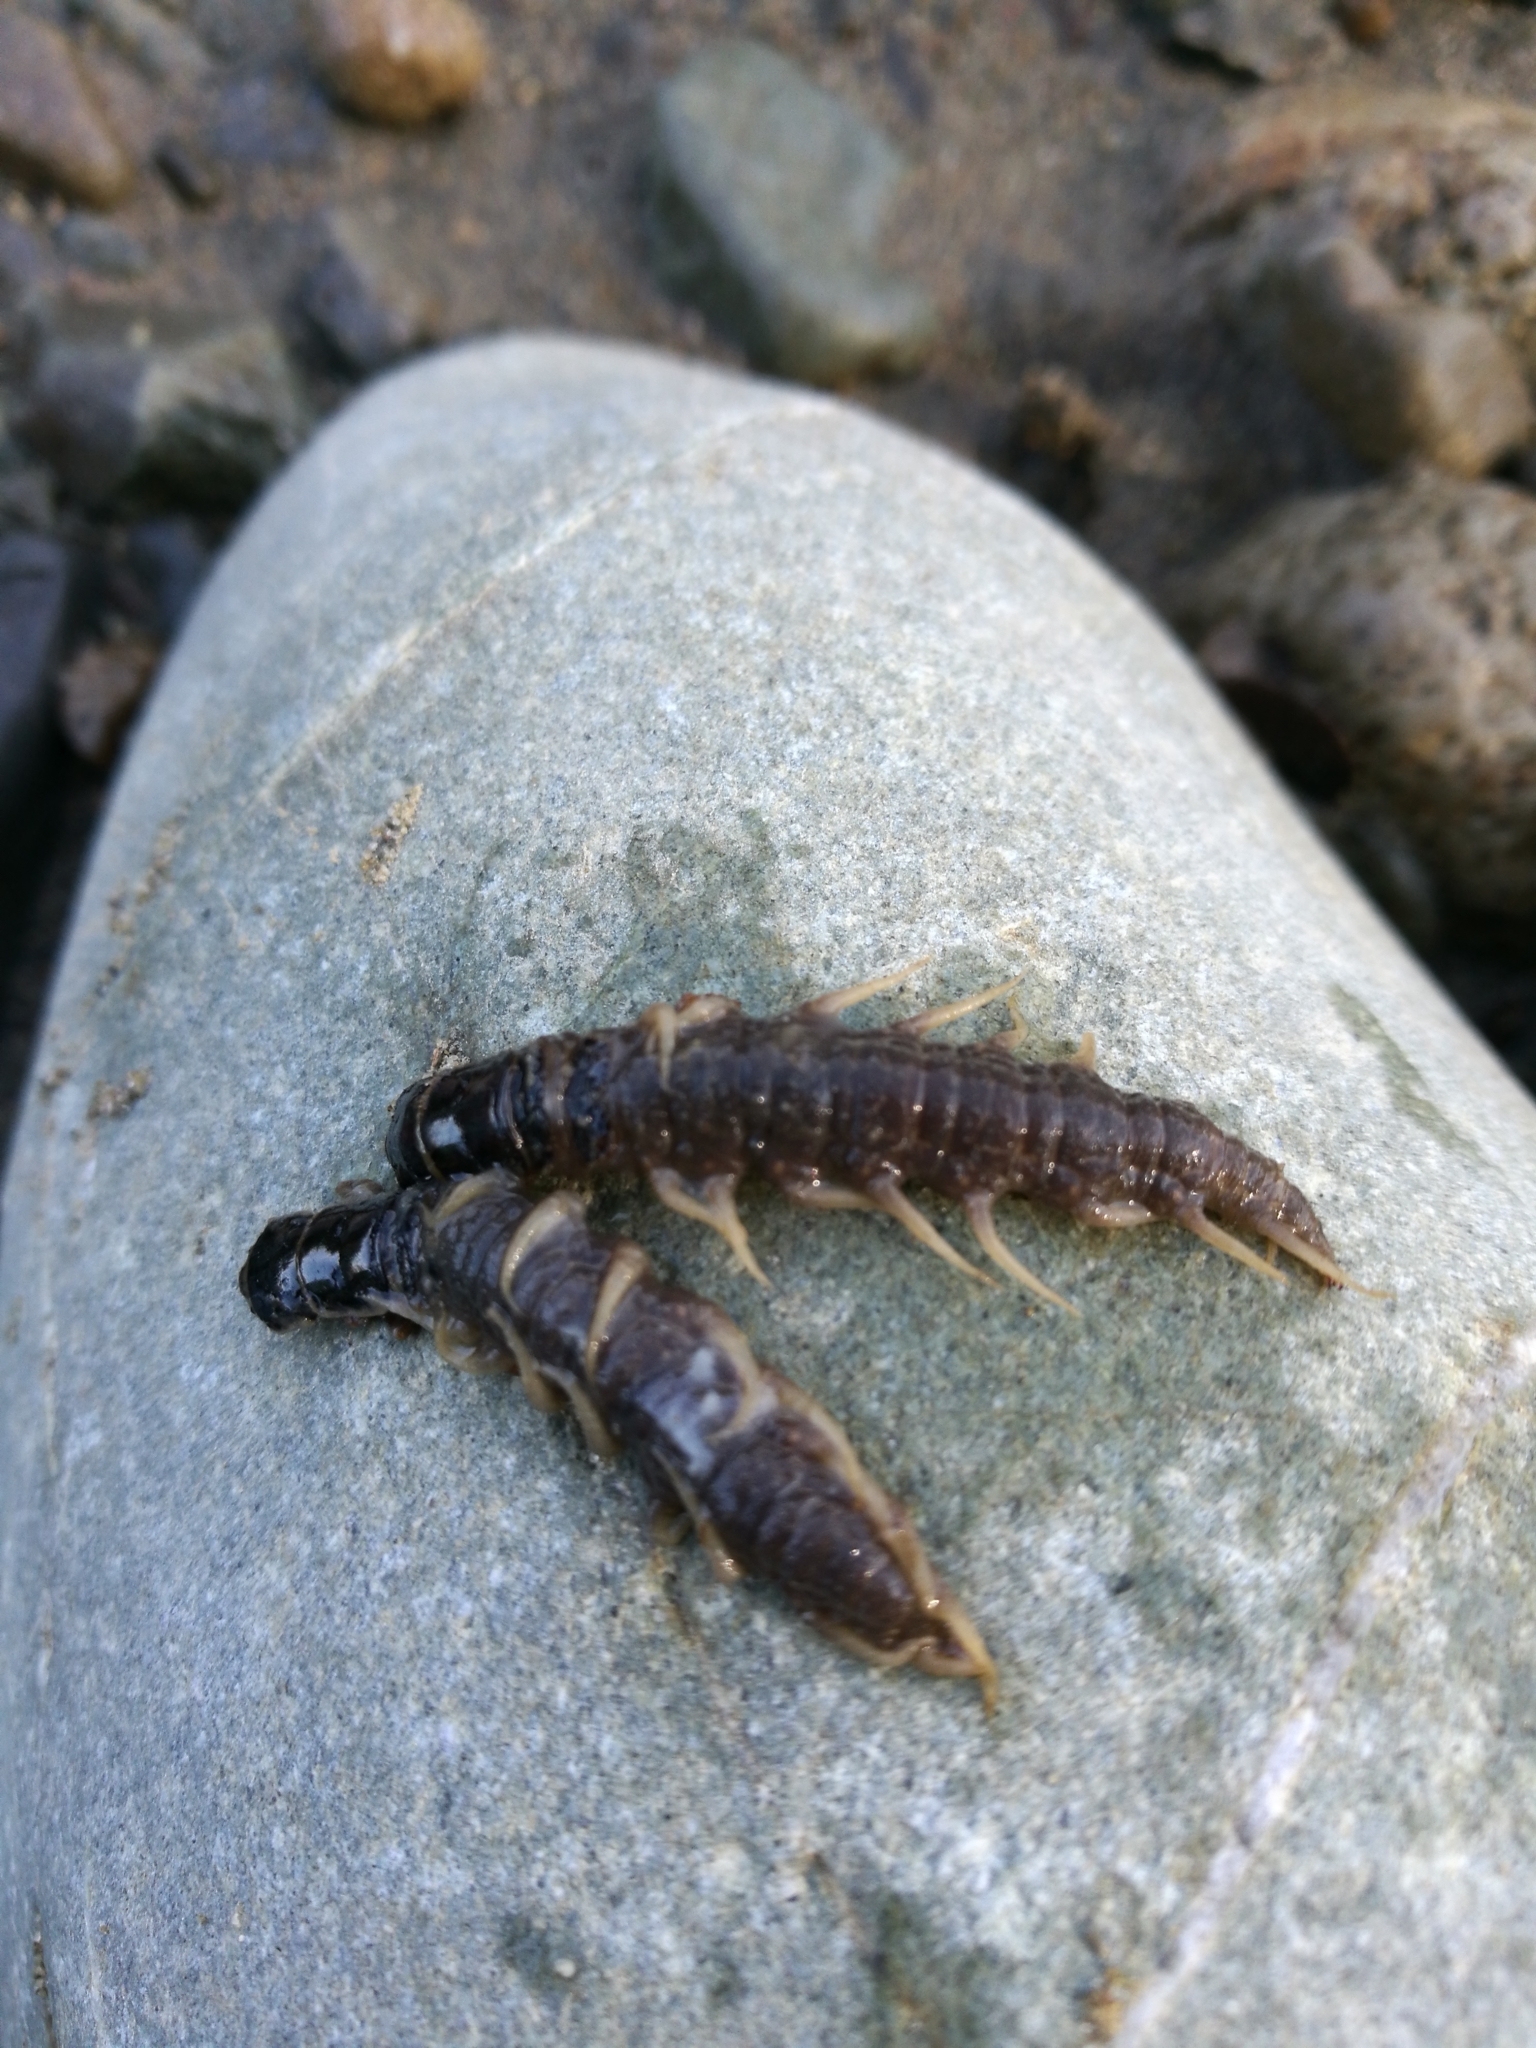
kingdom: Animalia
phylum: Arthropoda
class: Insecta
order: Megaloptera
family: Corydalidae
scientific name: Corydalidae
